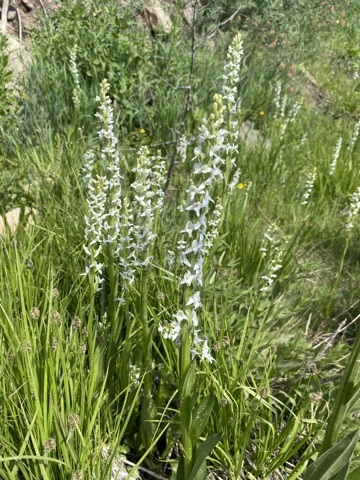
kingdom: Plantae
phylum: Tracheophyta
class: Liliopsida
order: Asparagales
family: Orchidaceae
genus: Platanthera
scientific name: Platanthera dilatata
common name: Bog candles
